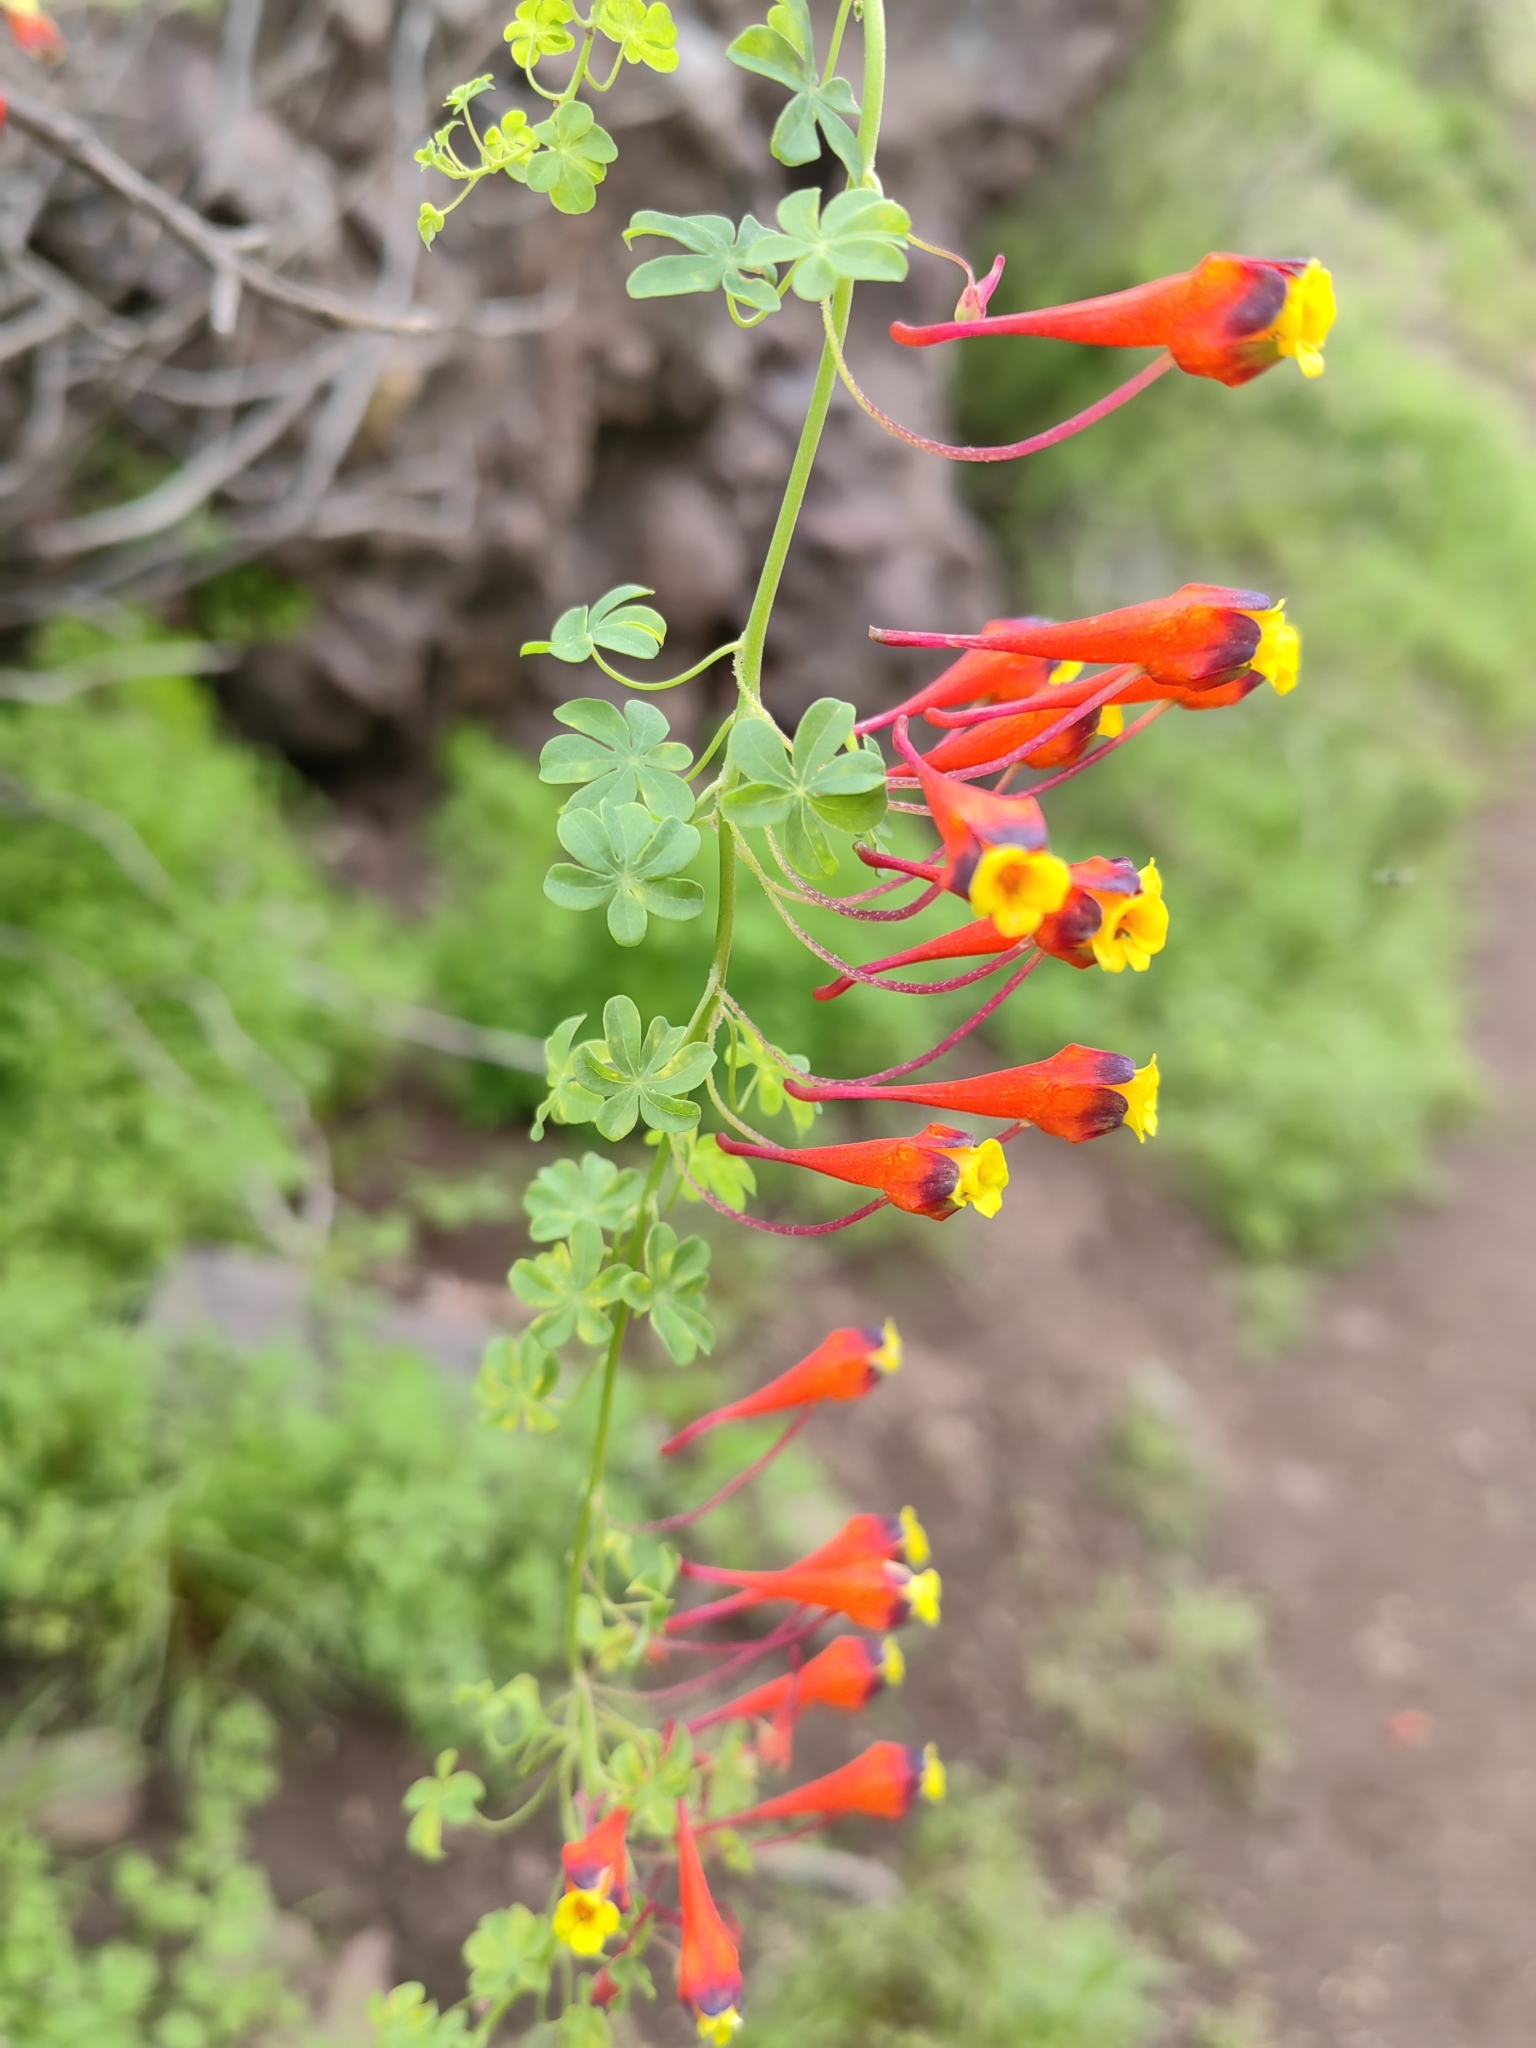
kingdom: Plantae
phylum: Tracheophyta
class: Magnoliopsida
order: Brassicales
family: Tropaeolaceae
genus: Tropaeolum
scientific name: Tropaeolum tricolor
